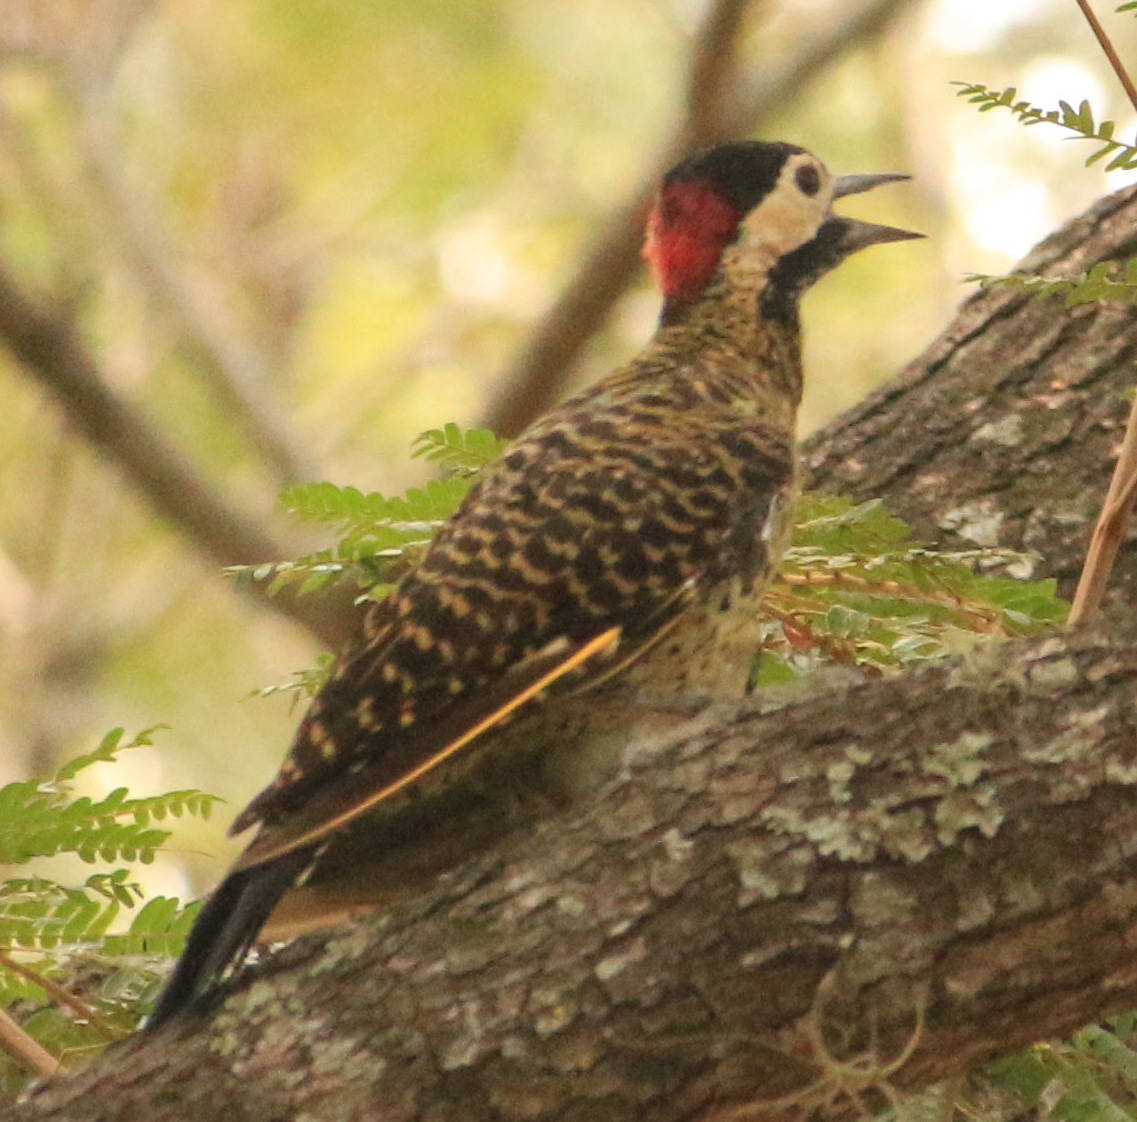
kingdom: Animalia
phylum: Chordata
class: Aves
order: Piciformes
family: Picidae
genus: Colaptes
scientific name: Colaptes melanochloros
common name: Green-barred woodpecker
